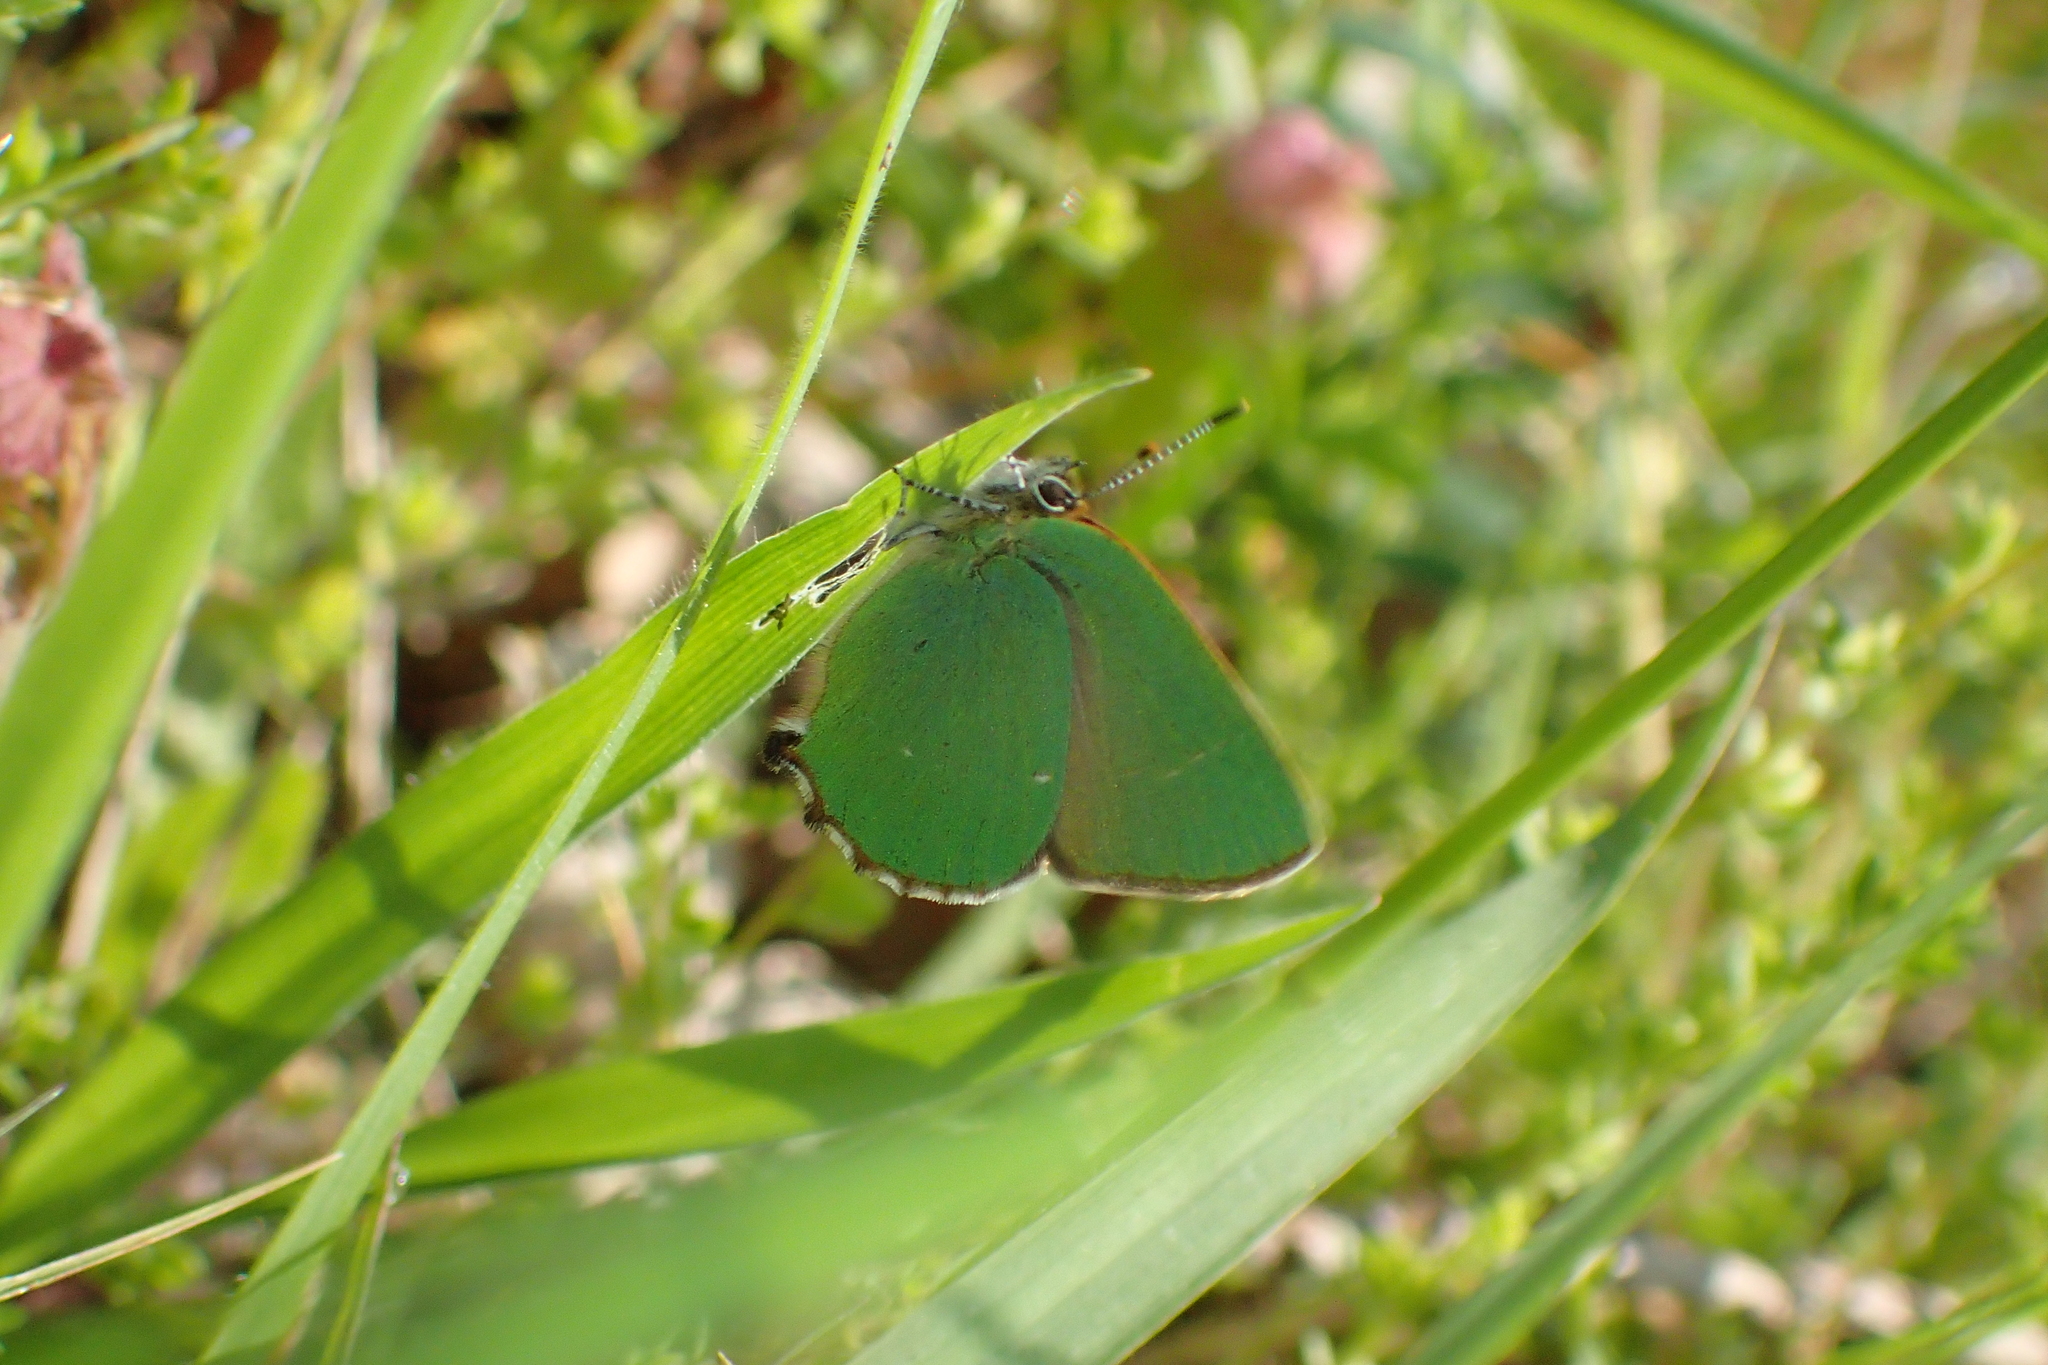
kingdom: Animalia
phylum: Arthropoda
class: Insecta
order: Lepidoptera
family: Lycaenidae
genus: Callophrys
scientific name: Callophrys rubi
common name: Green hairstreak
